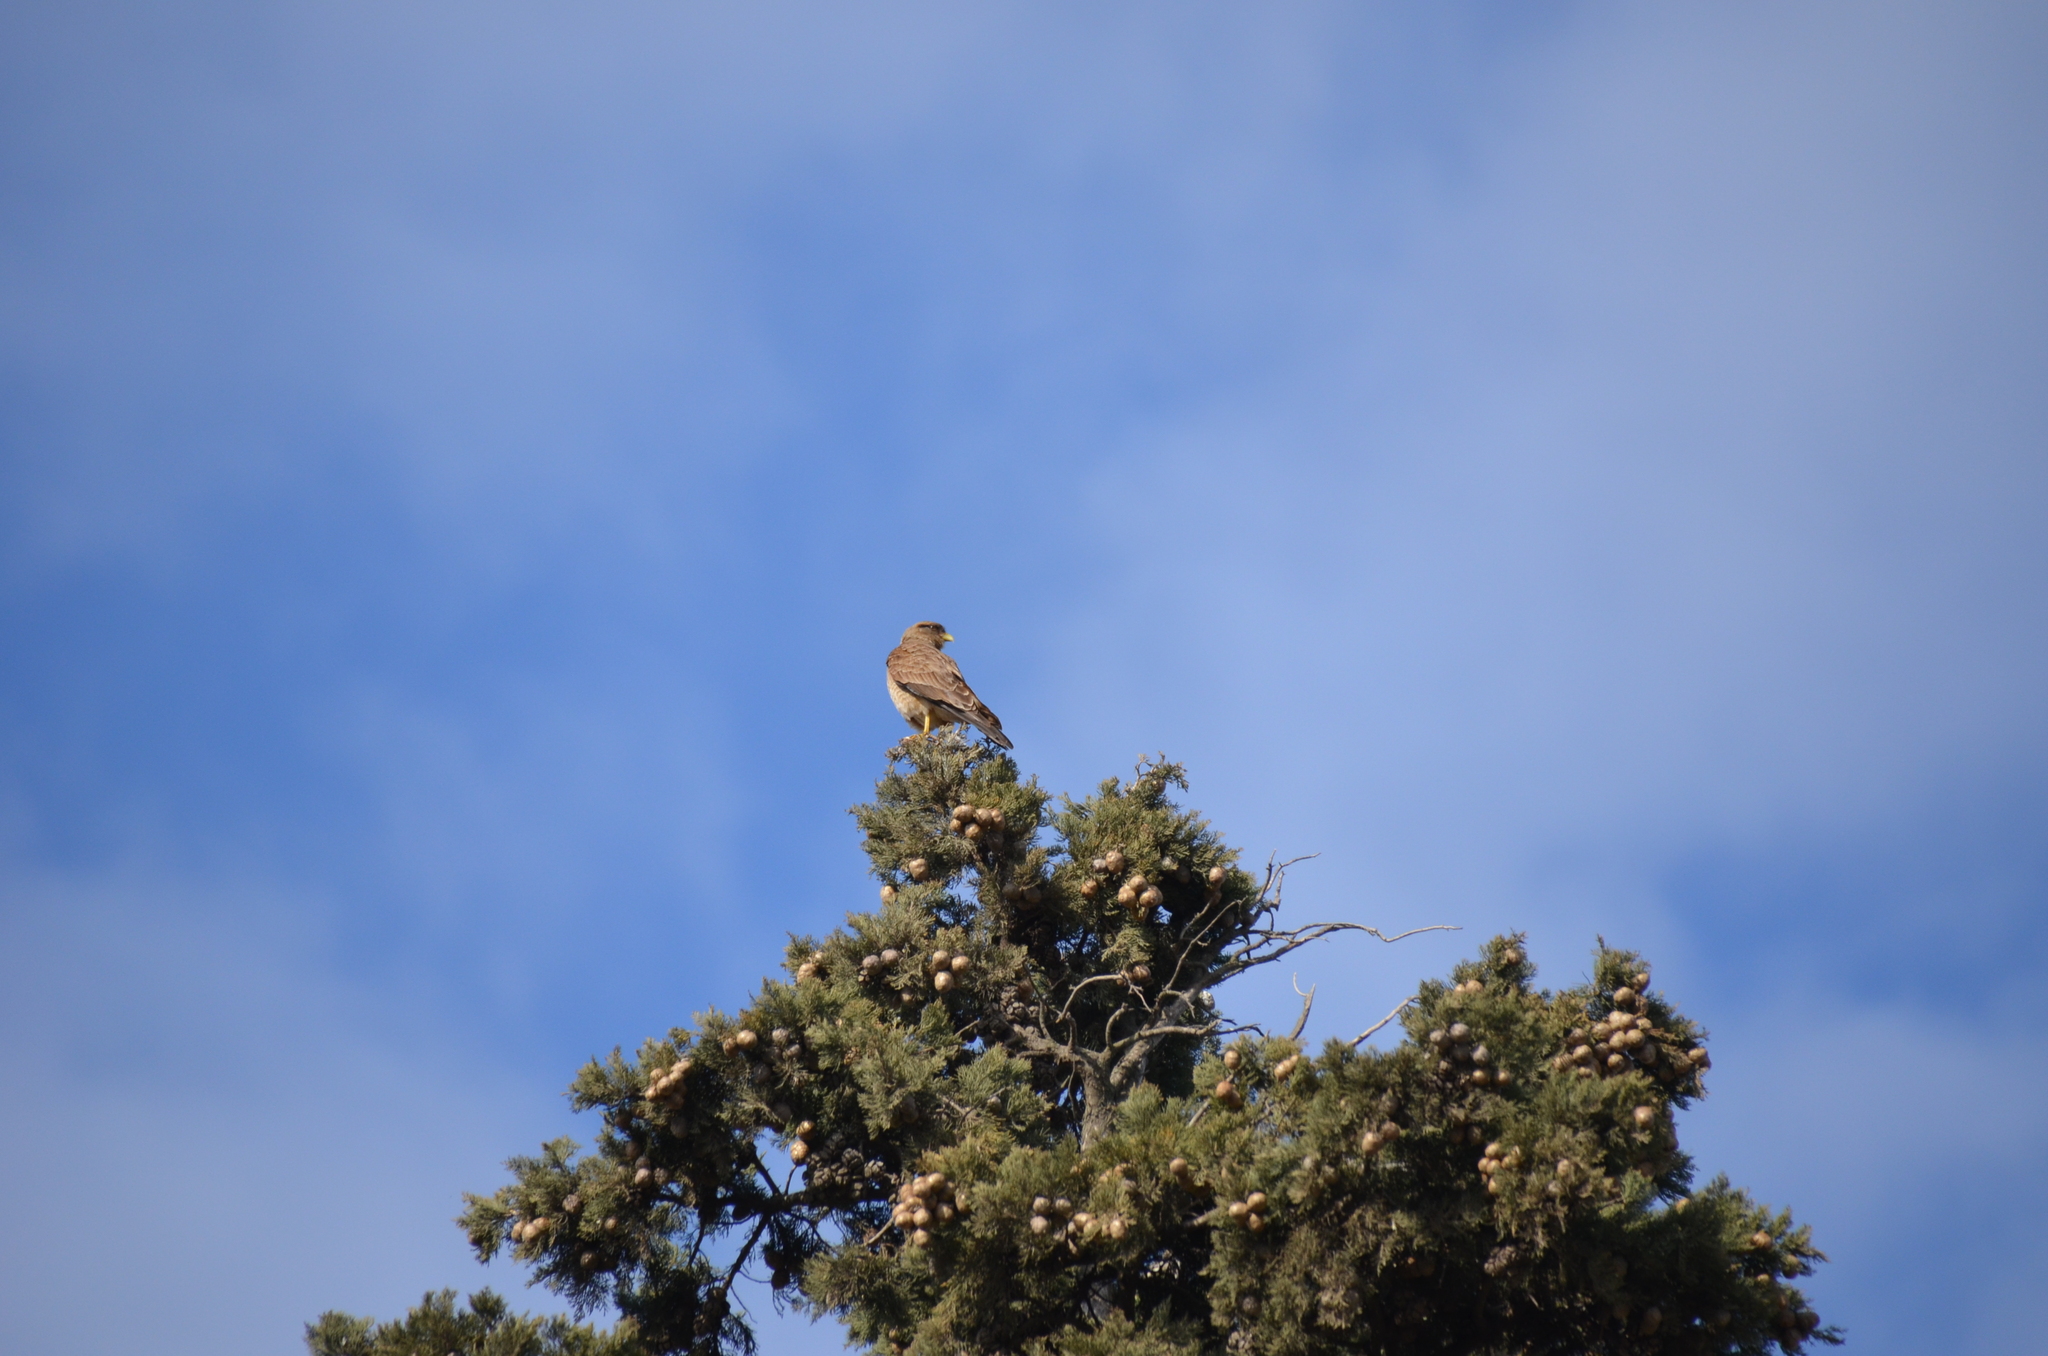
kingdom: Animalia
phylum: Chordata
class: Aves
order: Falconiformes
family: Falconidae
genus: Daptrius
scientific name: Daptrius
